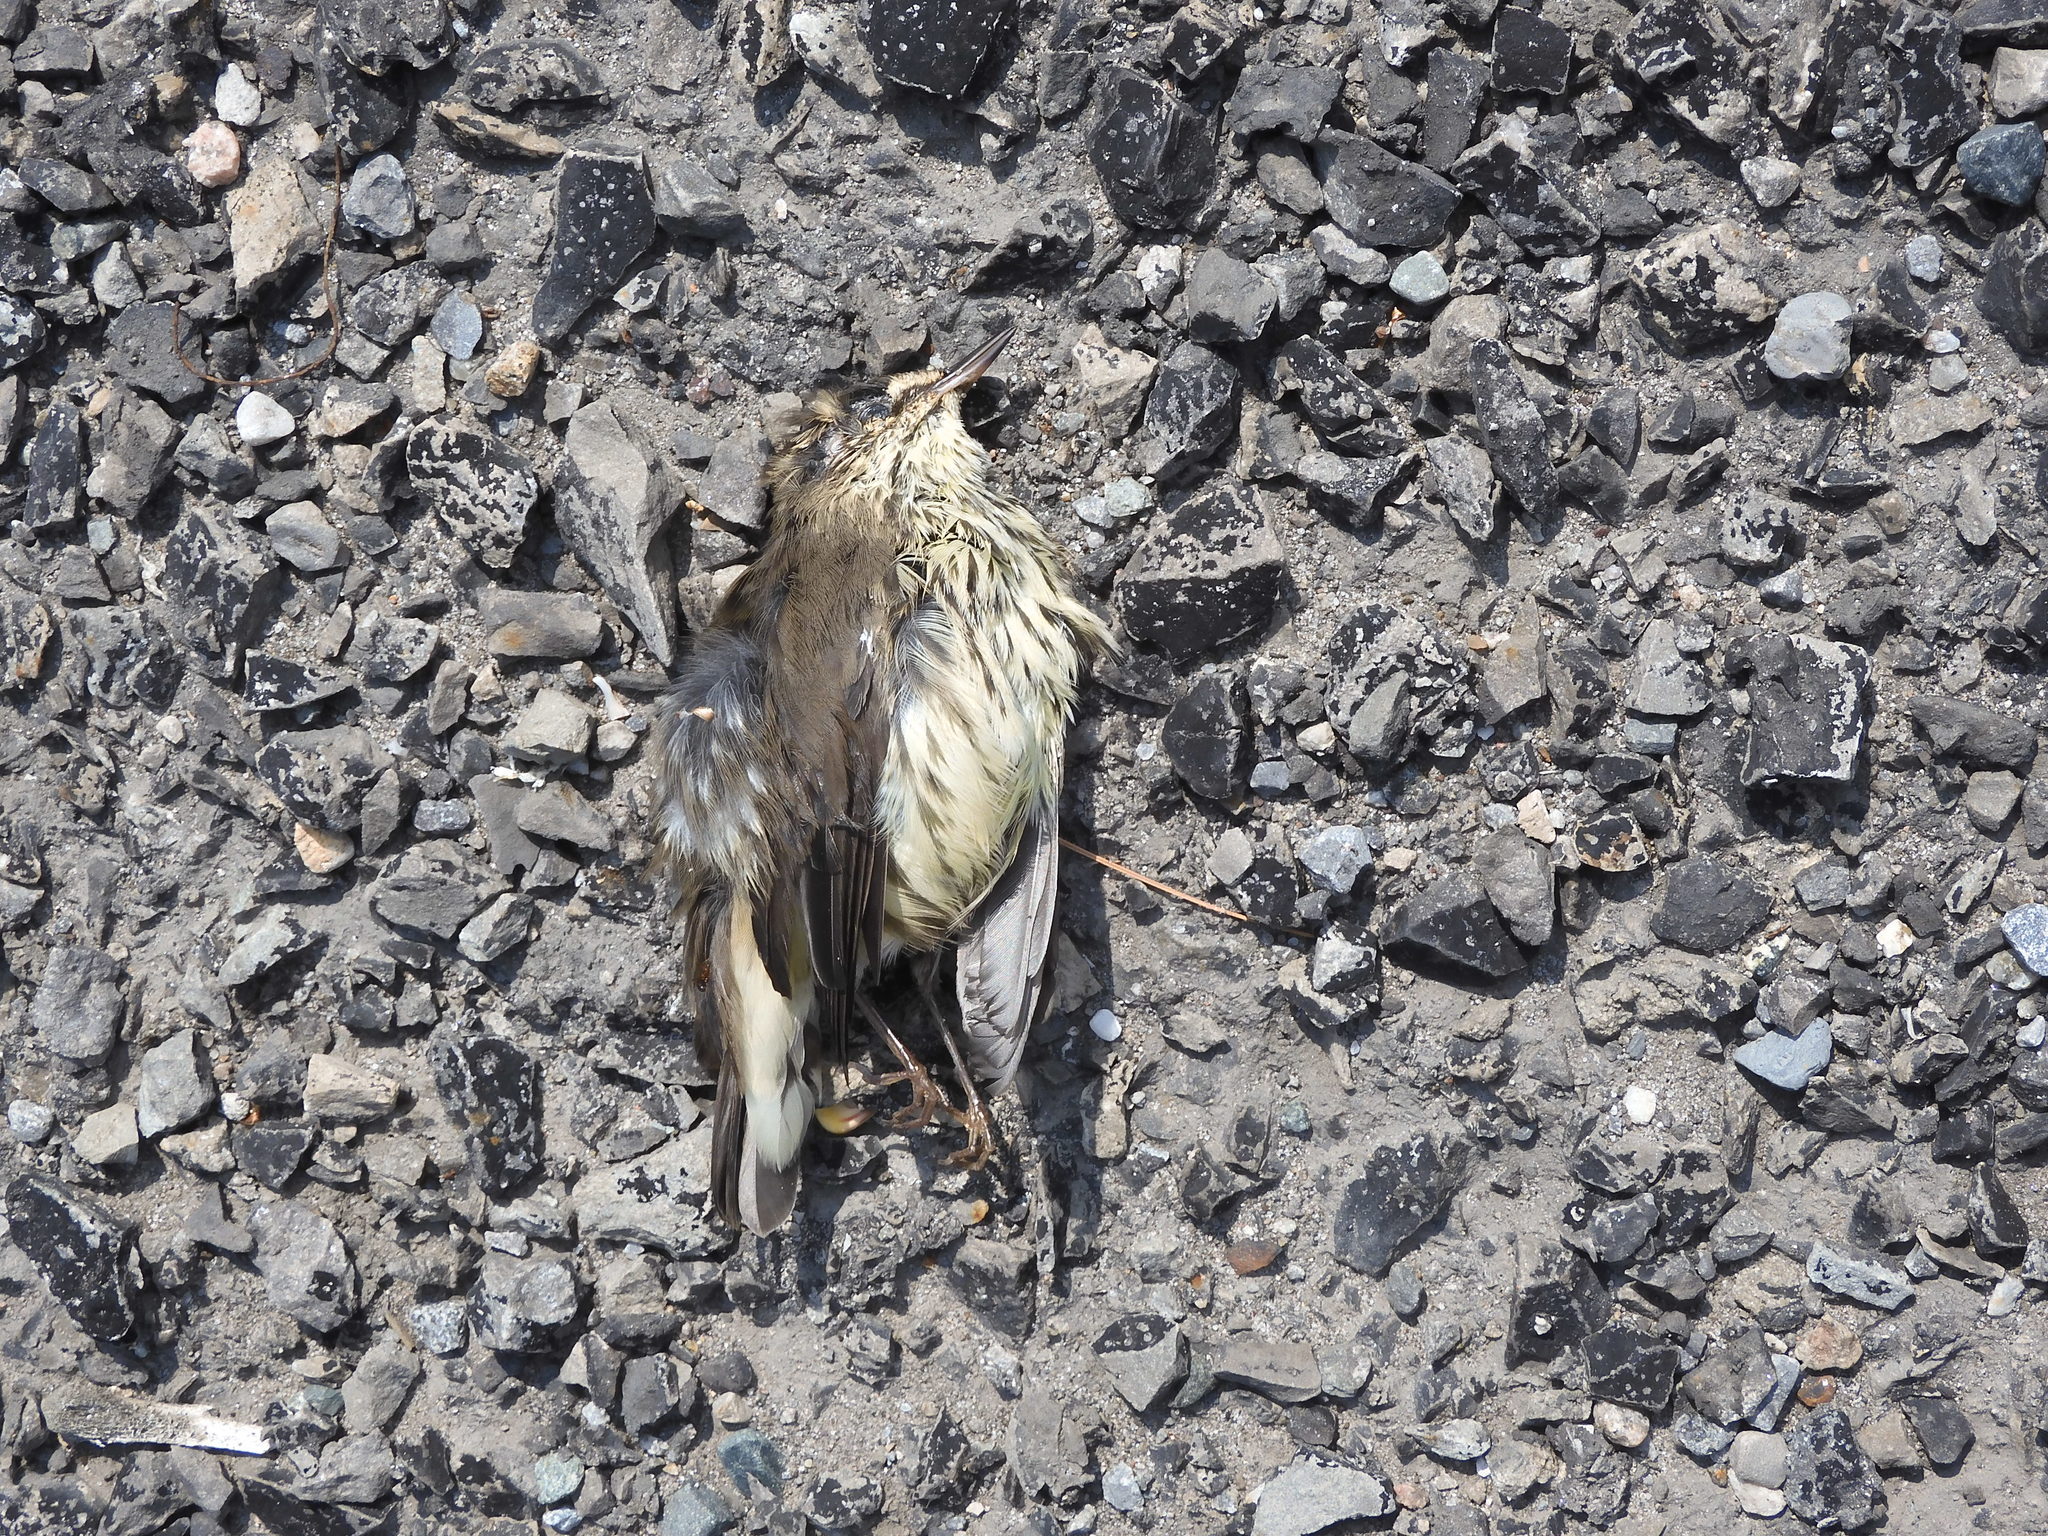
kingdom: Animalia
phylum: Chordata
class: Aves
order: Passeriformes
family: Parulidae
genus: Parkesia
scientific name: Parkesia noveboracensis
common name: Northern waterthrush
